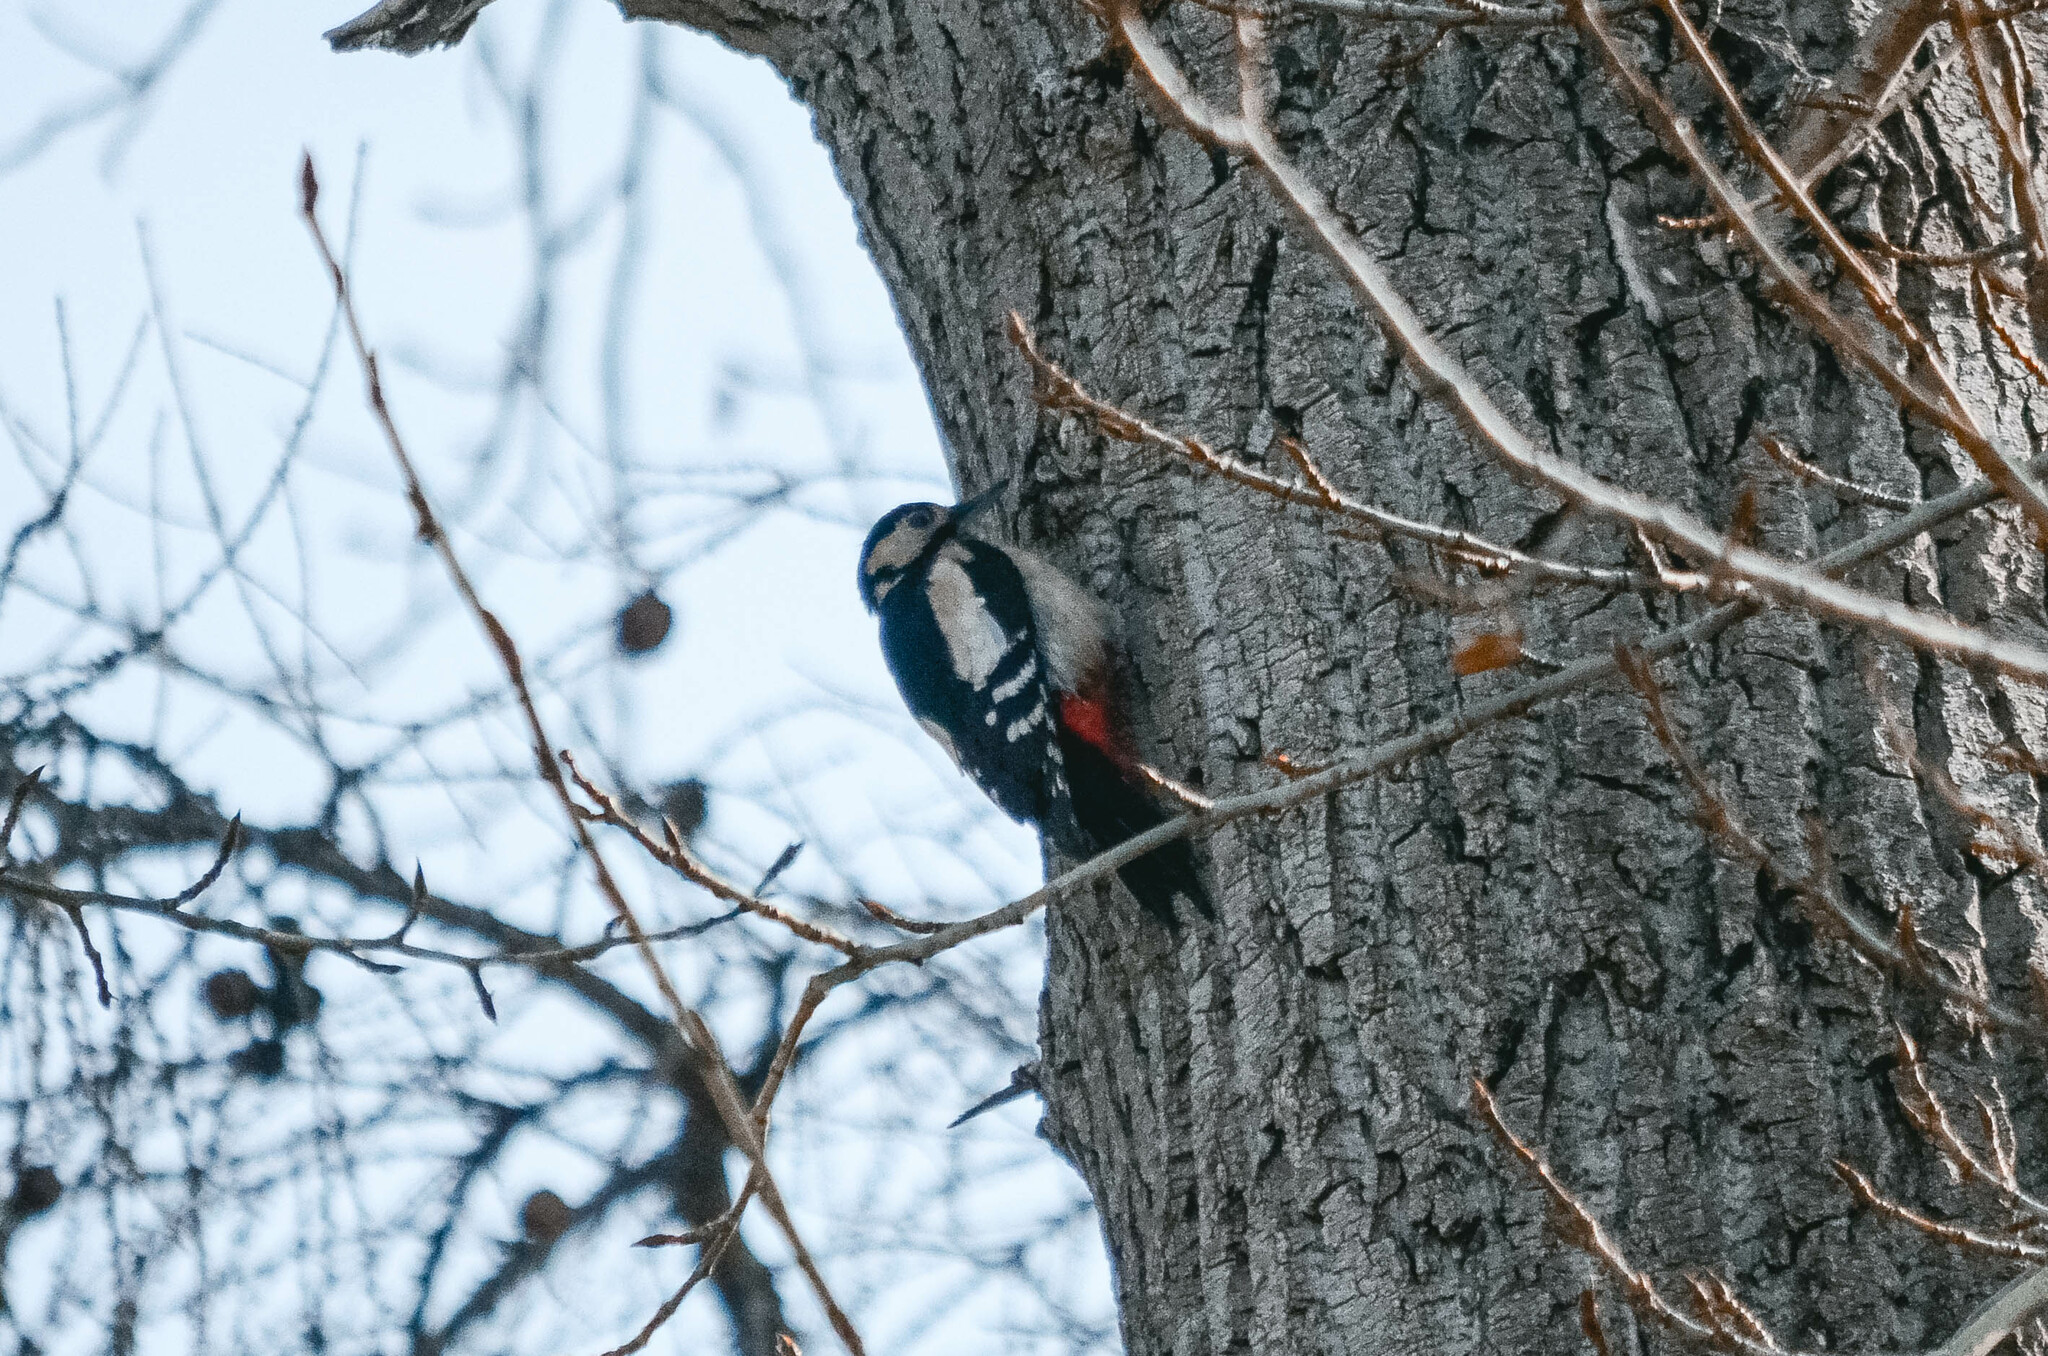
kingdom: Animalia
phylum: Chordata
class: Aves
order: Piciformes
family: Picidae
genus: Dendrocopos
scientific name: Dendrocopos major
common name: Great spotted woodpecker
